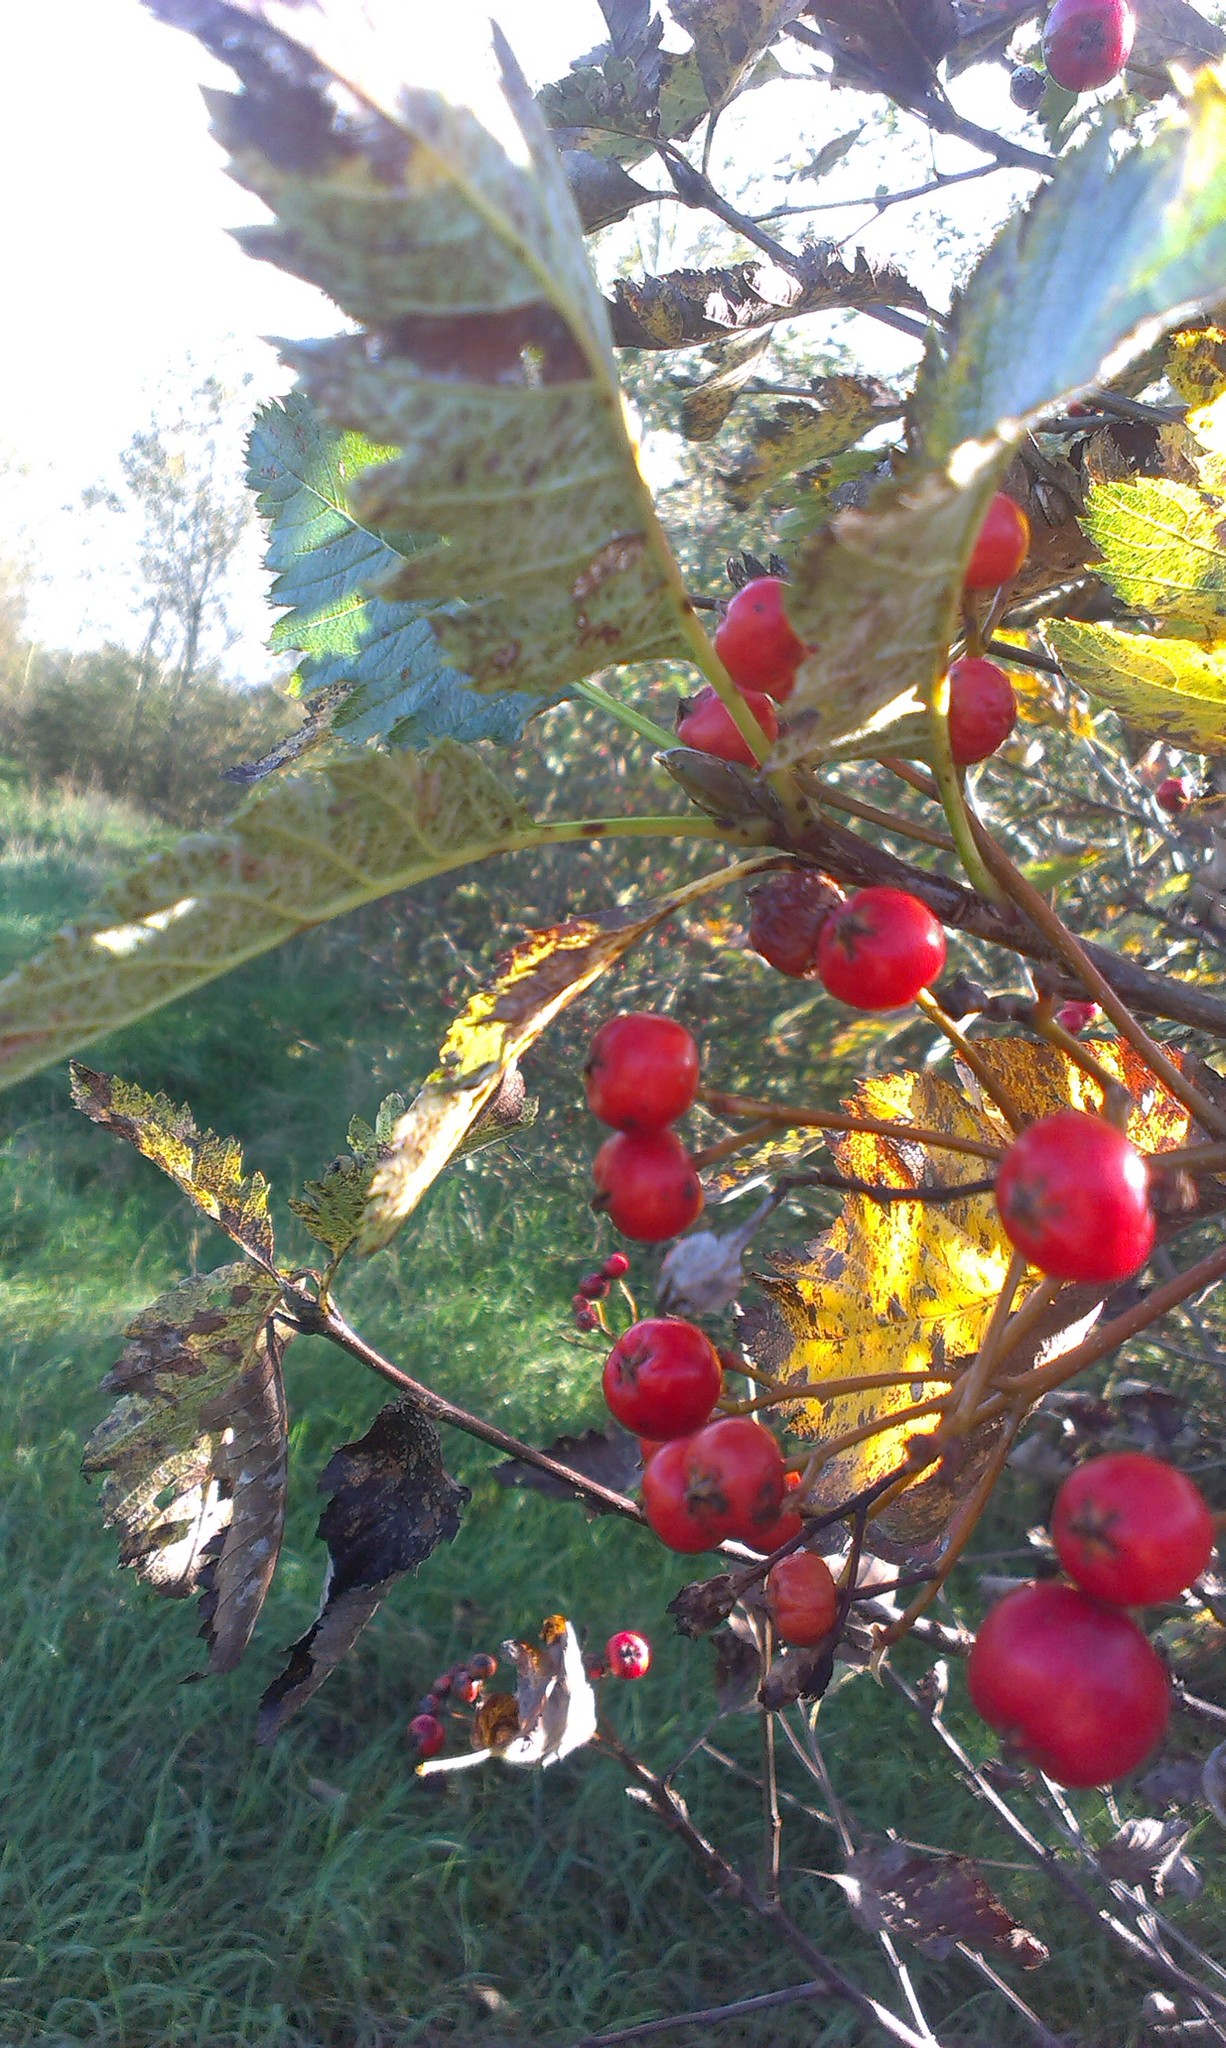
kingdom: Plantae
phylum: Tracheophyta
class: Magnoliopsida
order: Rosales
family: Rosaceae
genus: Scandosorbus
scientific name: Scandosorbus intermedia
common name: Swedish whitebeam
